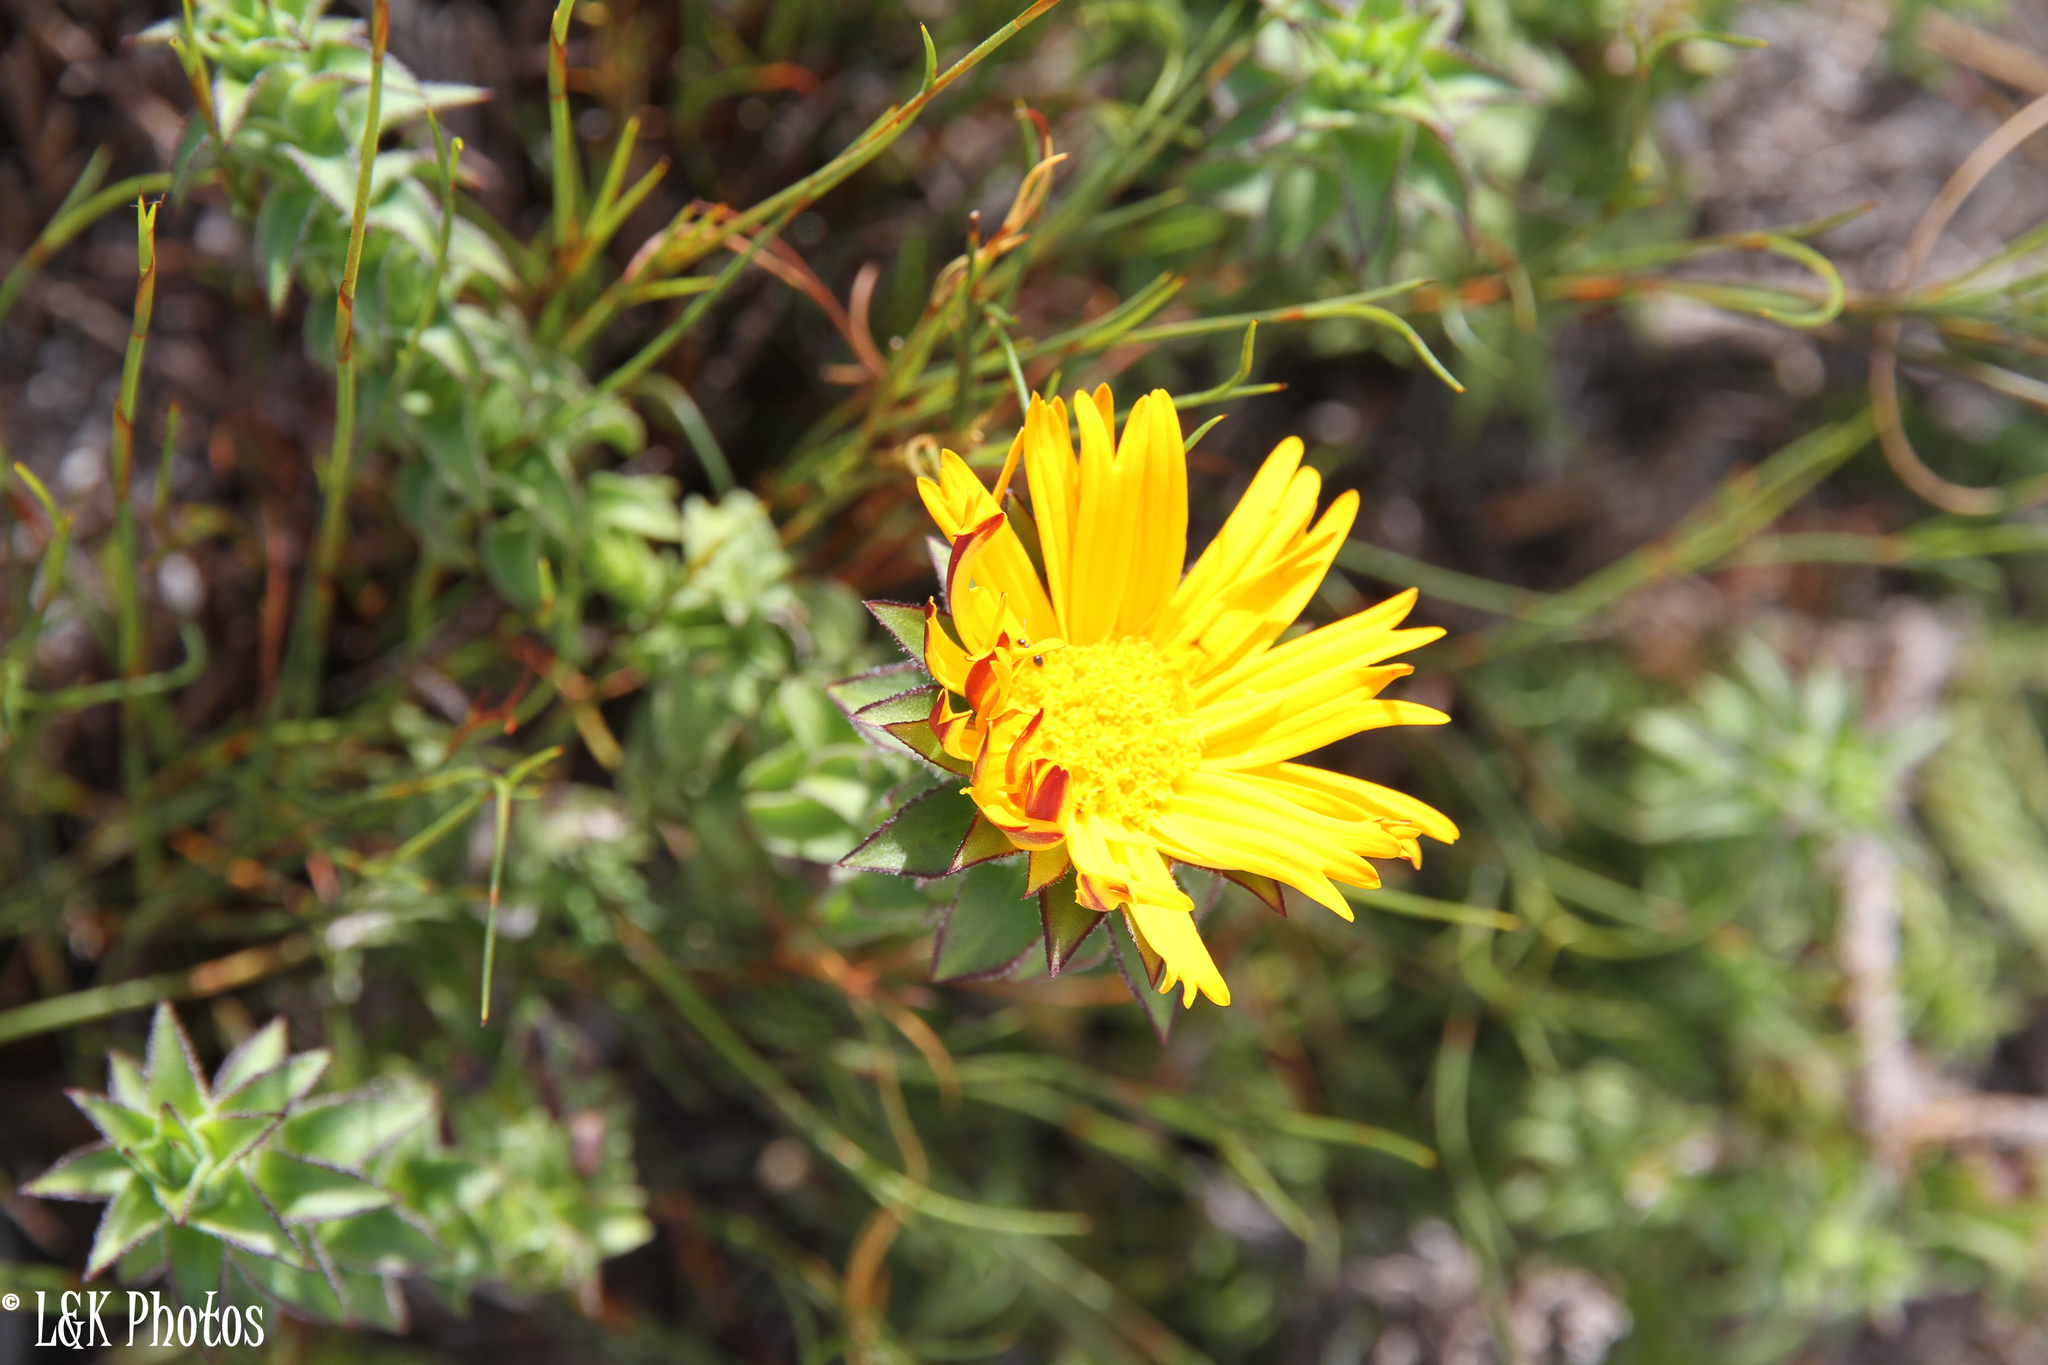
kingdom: Plantae
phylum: Tracheophyta
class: Magnoliopsida
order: Asterales
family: Asteraceae
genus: Oedera
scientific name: Oedera imbricata
